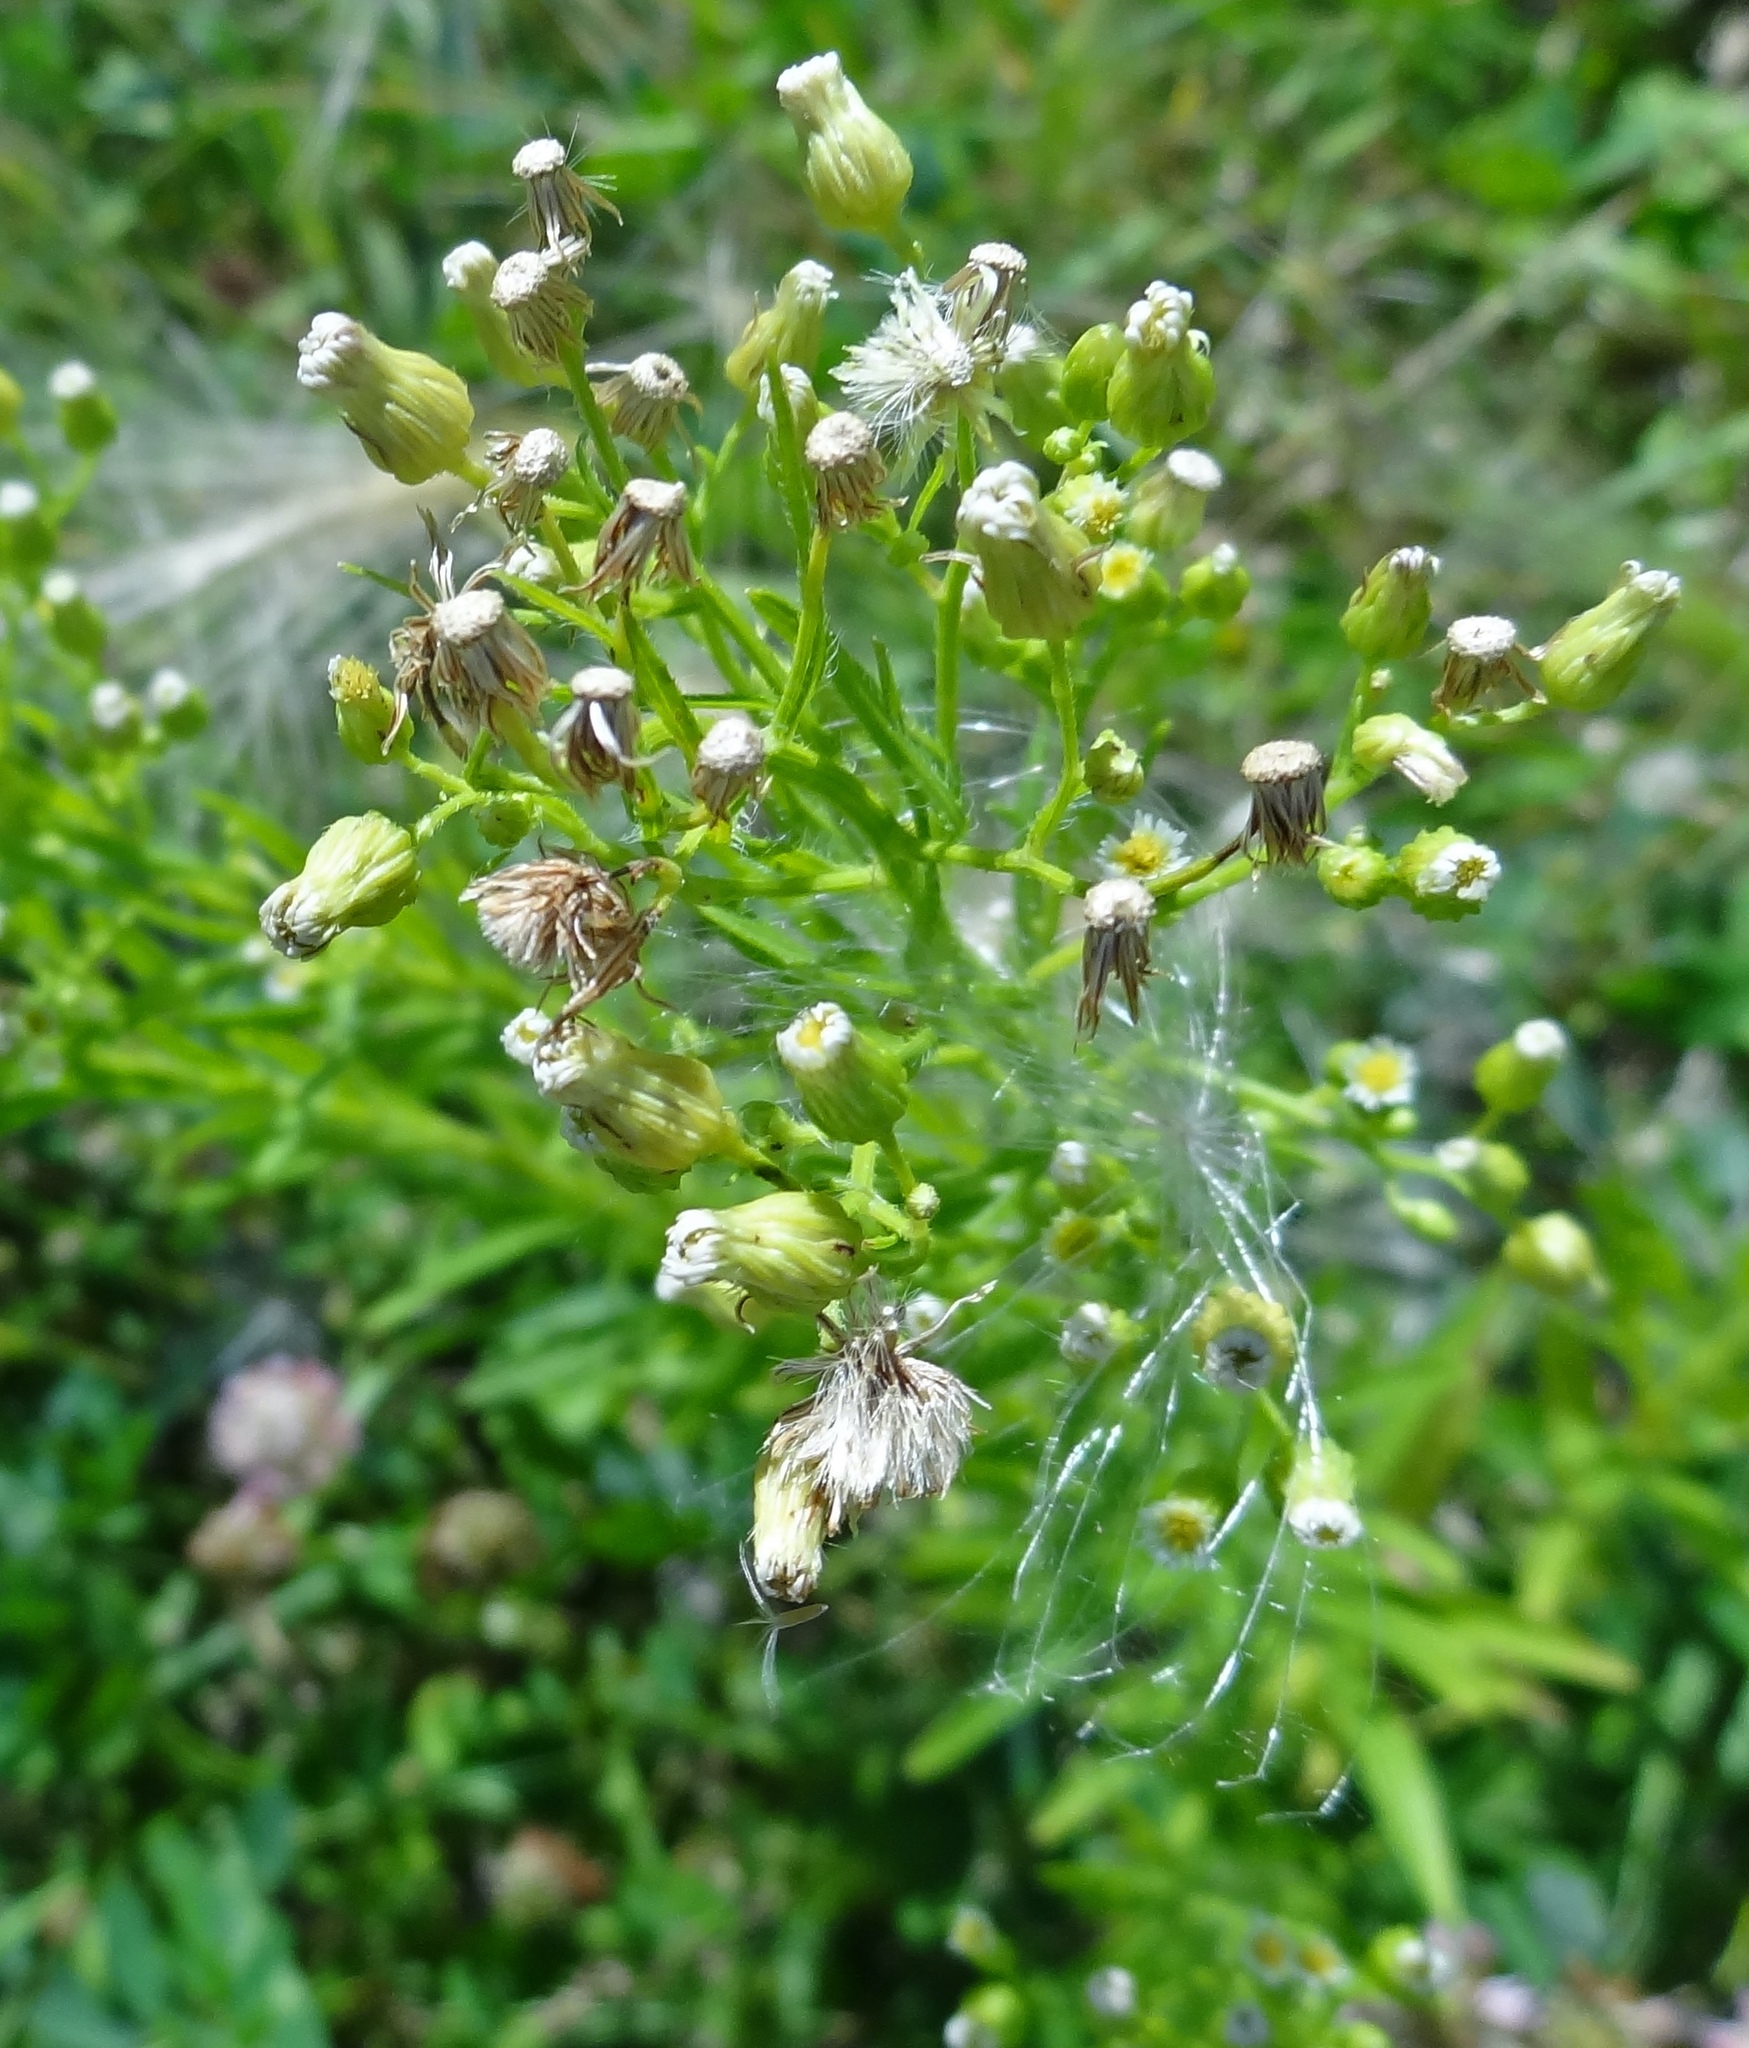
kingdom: Plantae
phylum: Tracheophyta
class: Magnoliopsida
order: Asterales
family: Asteraceae
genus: Erigeron
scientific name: Erigeron canadensis
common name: Canadian fleabane
